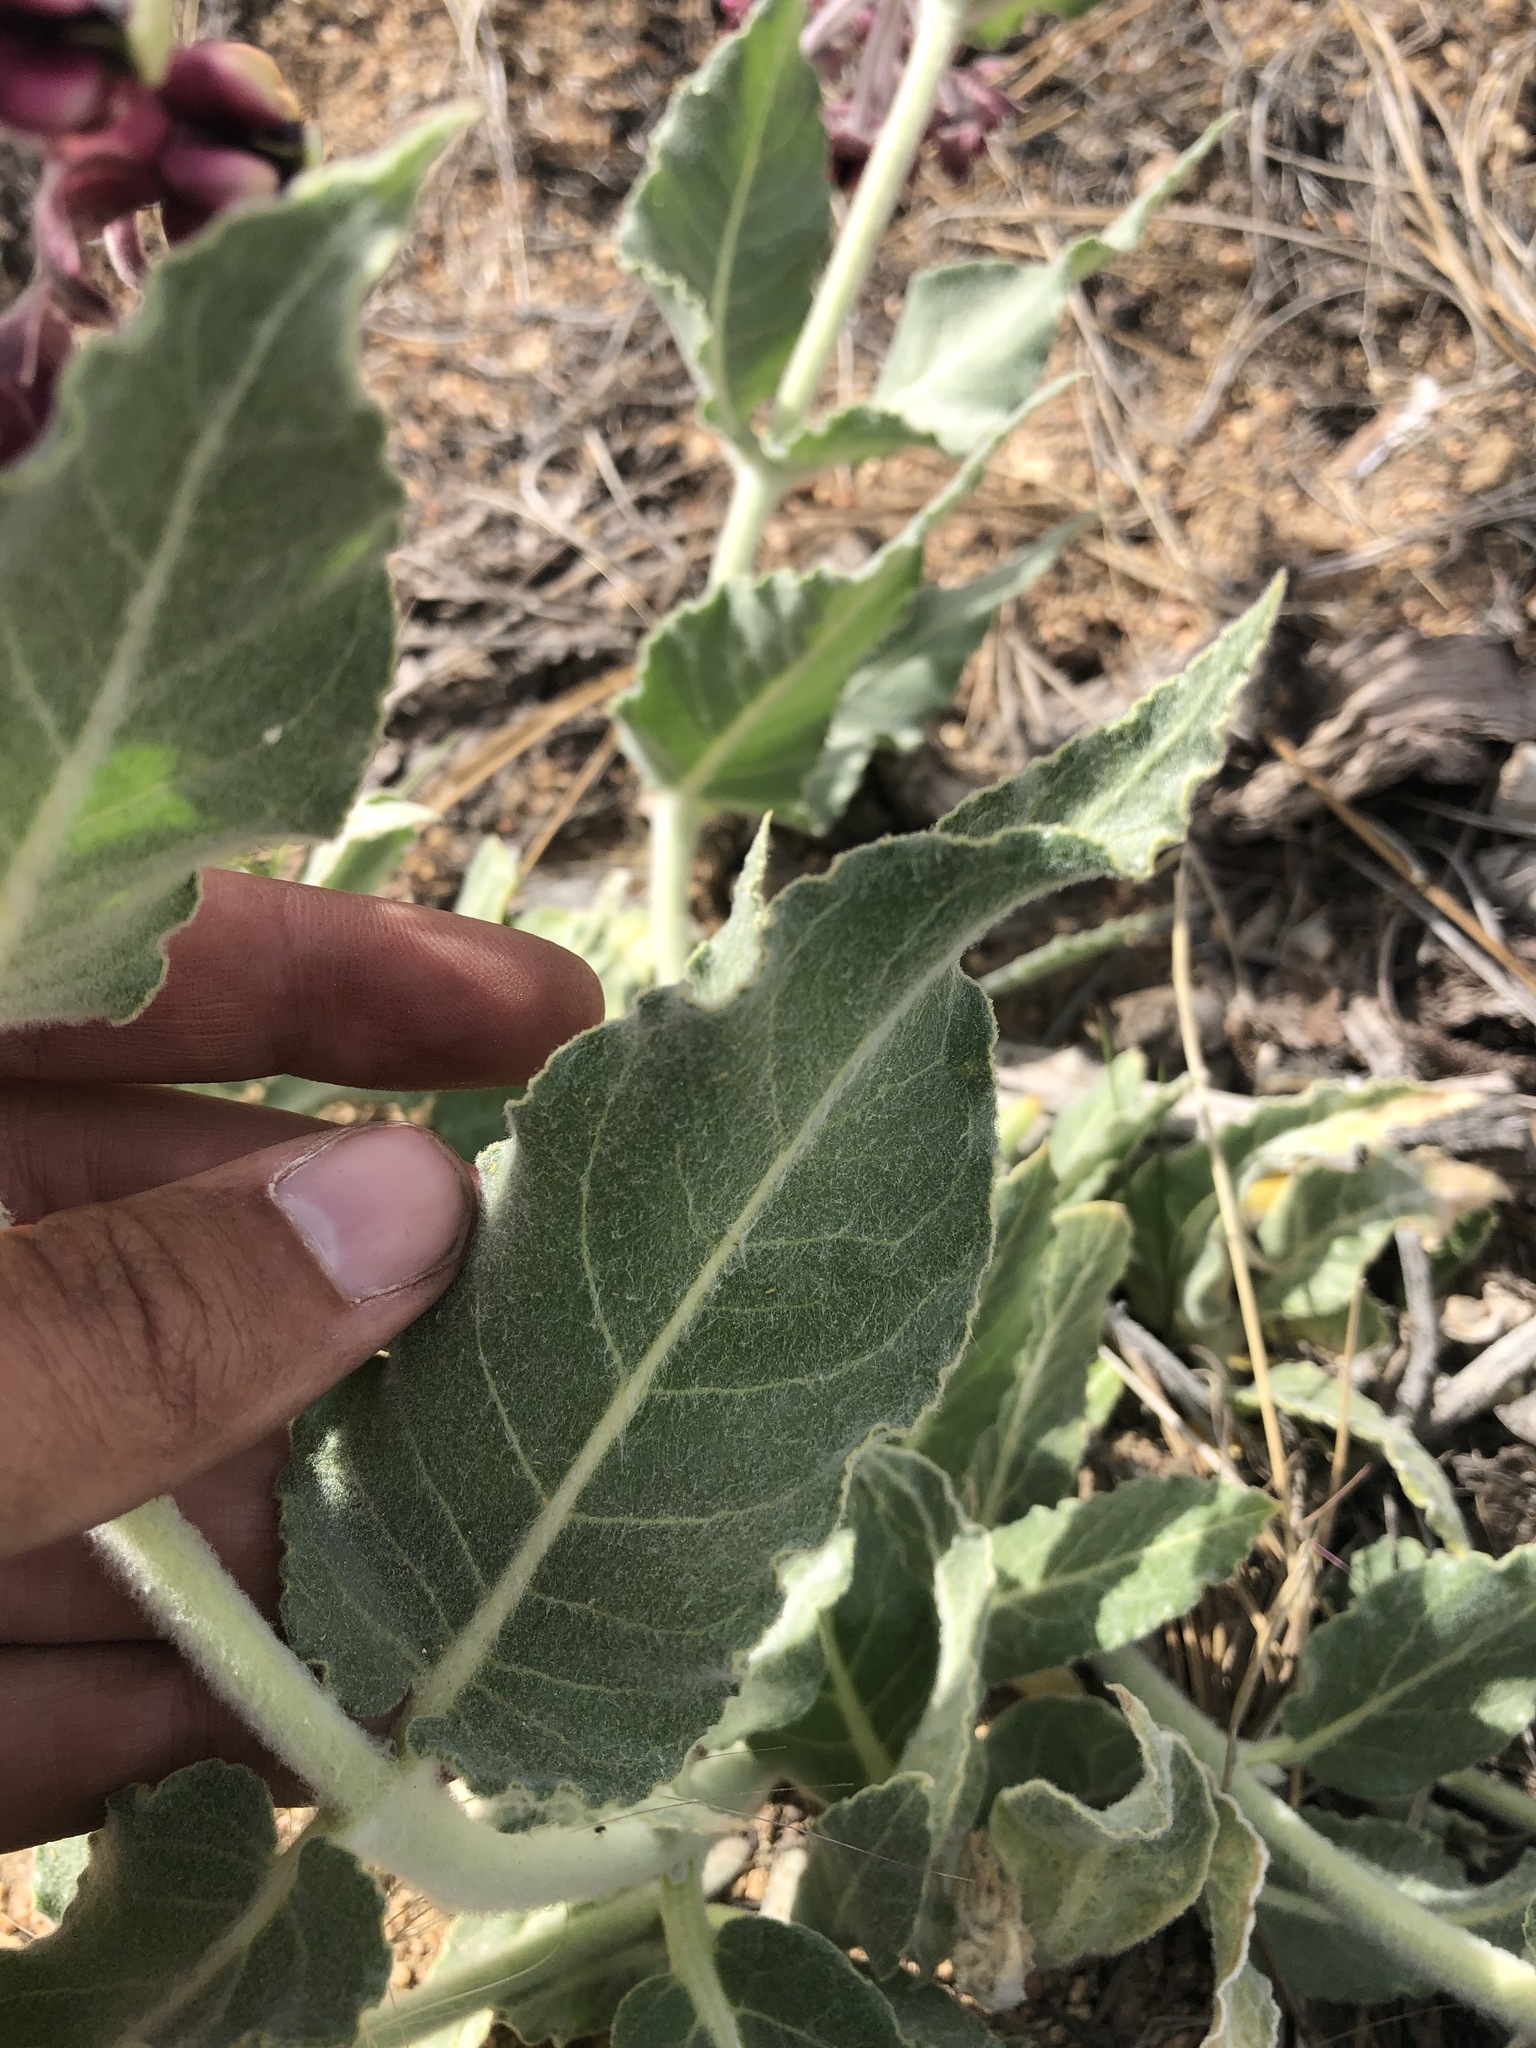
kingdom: Plantae
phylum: Tracheophyta
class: Magnoliopsida
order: Gentianales
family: Apocynaceae
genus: Asclepias
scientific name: Asclepias californica
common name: California milkweed
